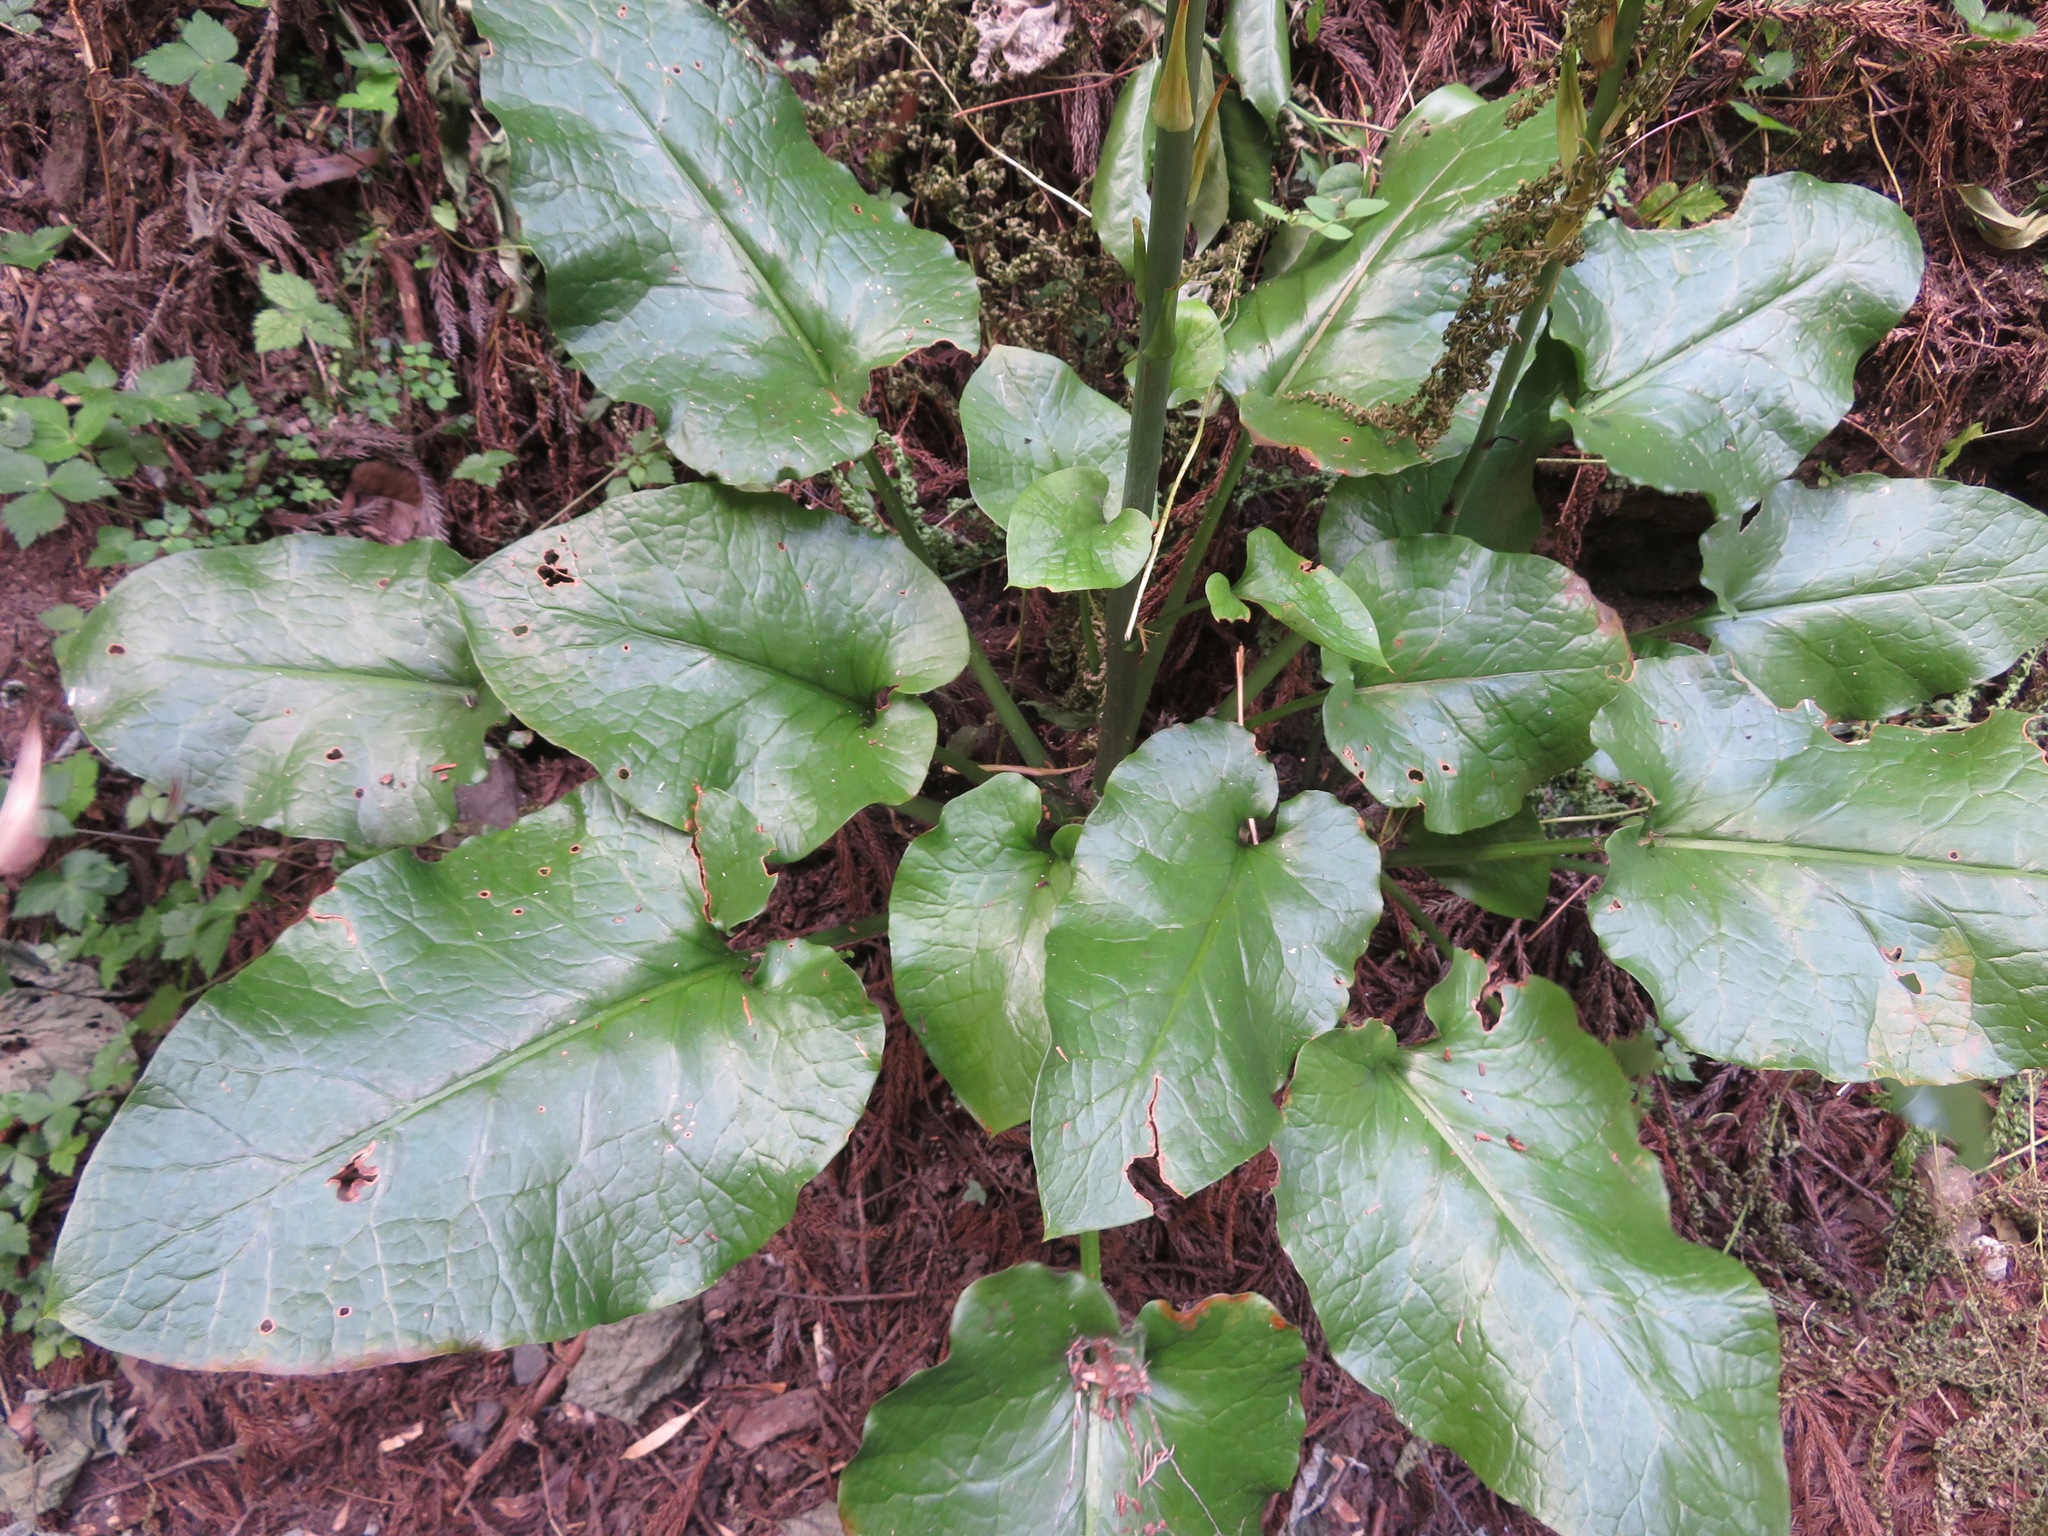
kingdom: Plantae
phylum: Tracheophyta
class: Liliopsida
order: Liliales
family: Liliaceae
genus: Cardiocrinum
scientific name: Cardiocrinum cordatum
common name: Lily
